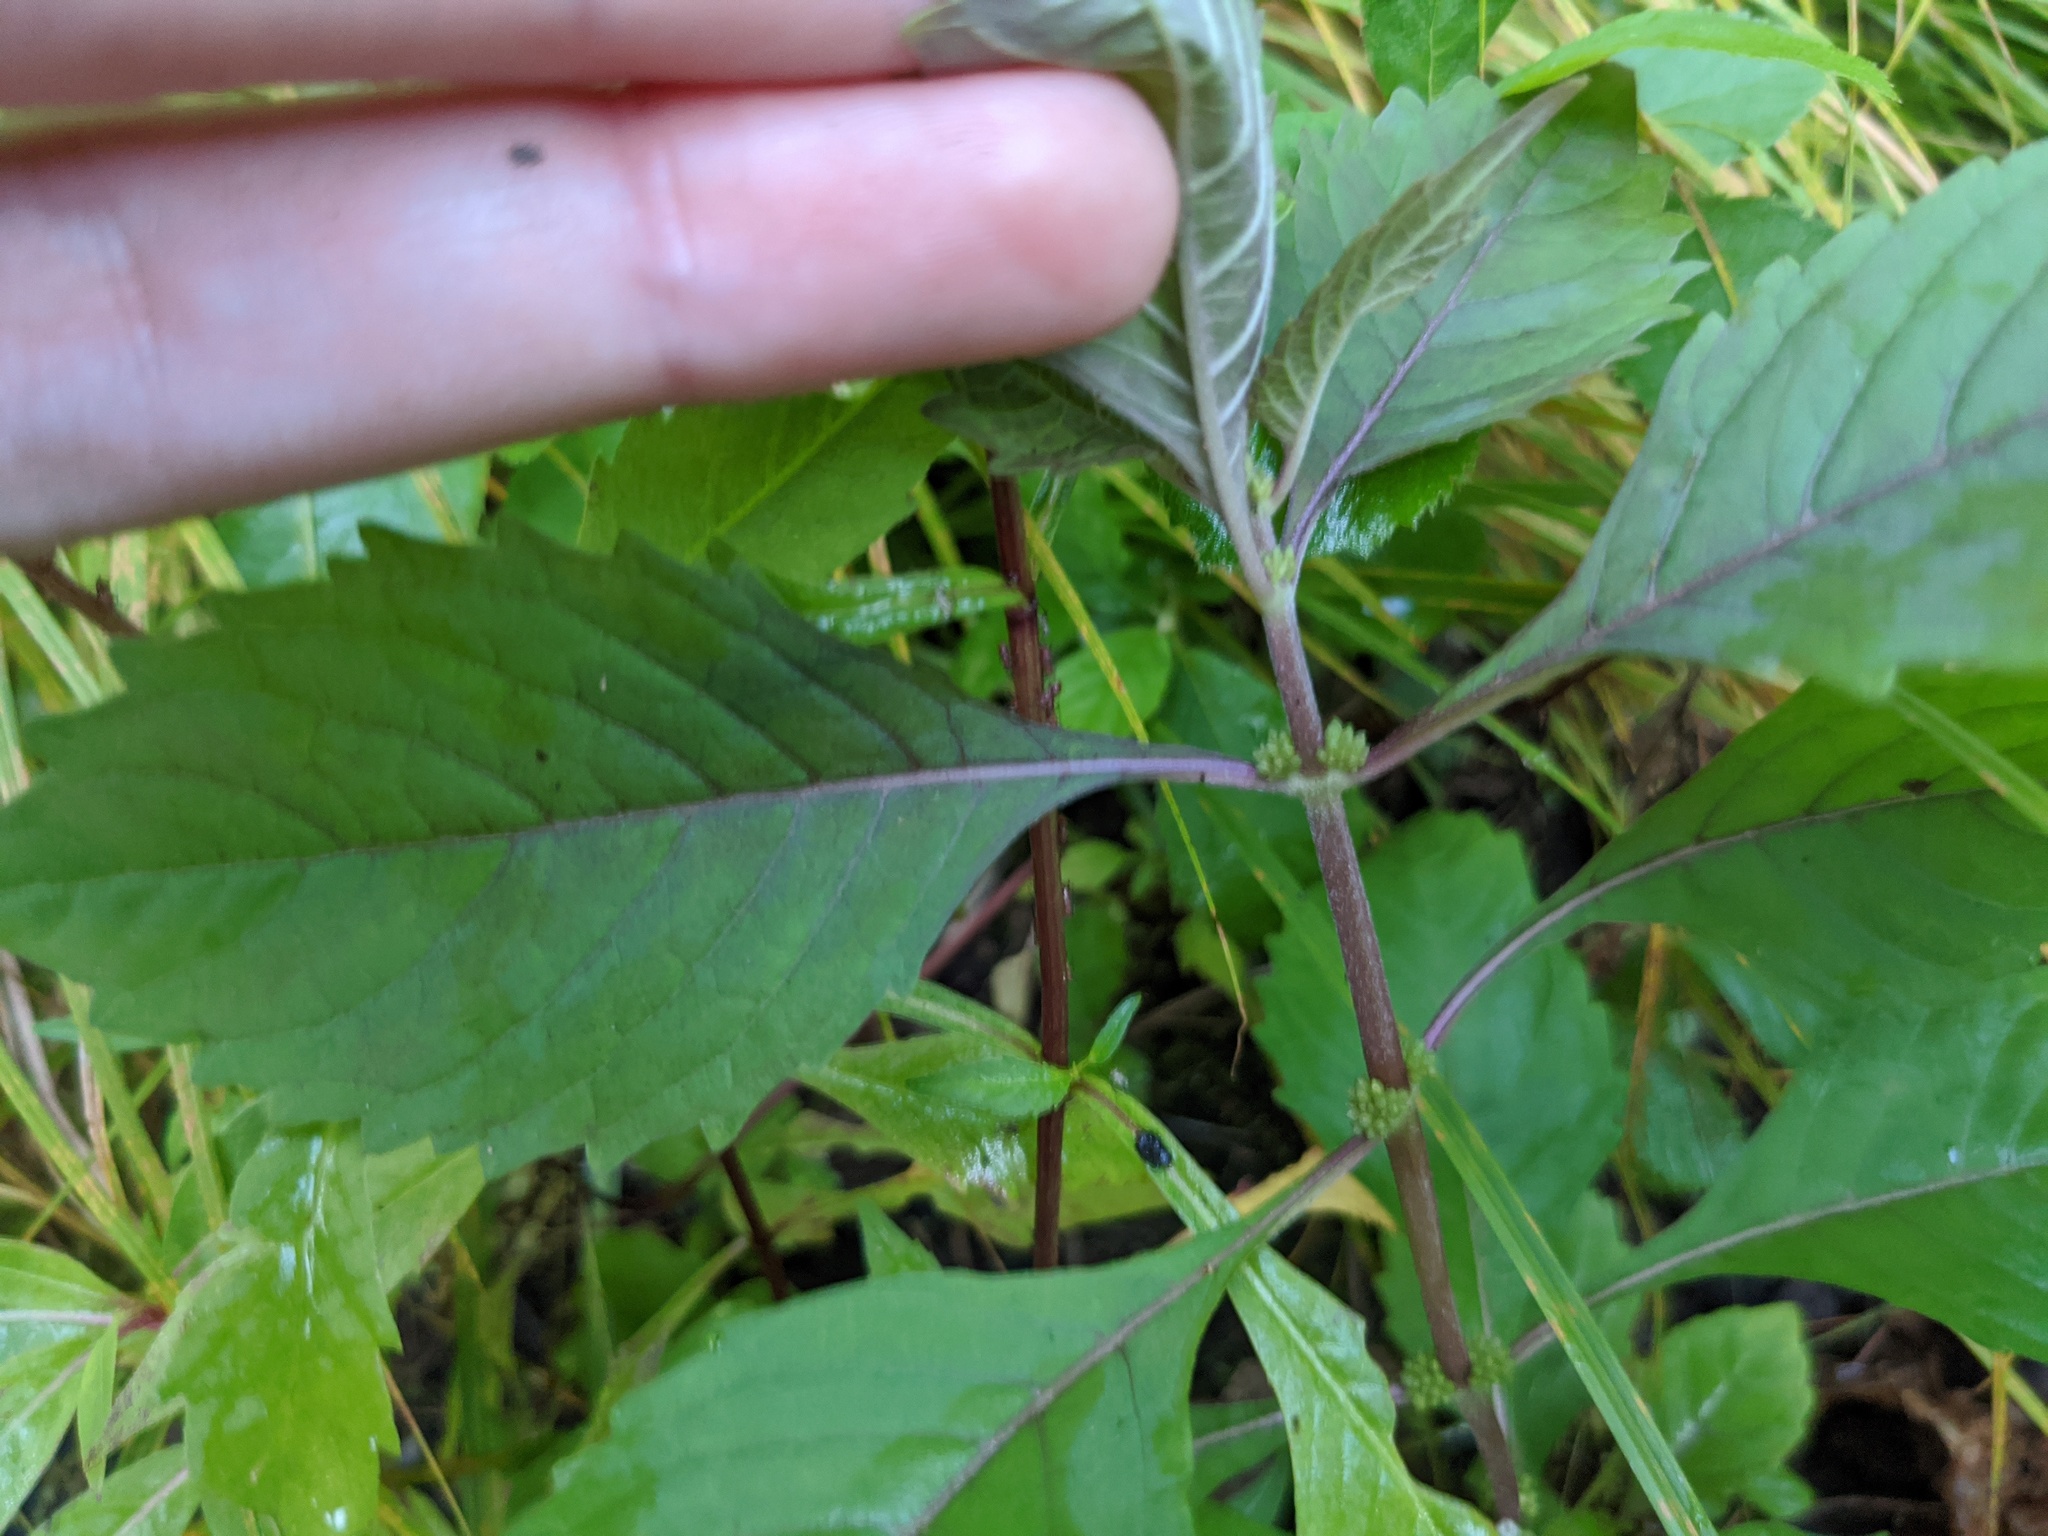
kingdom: Plantae
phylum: Tracheophyta
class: Magnoliopsida
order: Lamiales
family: Lamiaceae
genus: Lycopus
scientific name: Lycopus uniflorus
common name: Northern bugleweed
